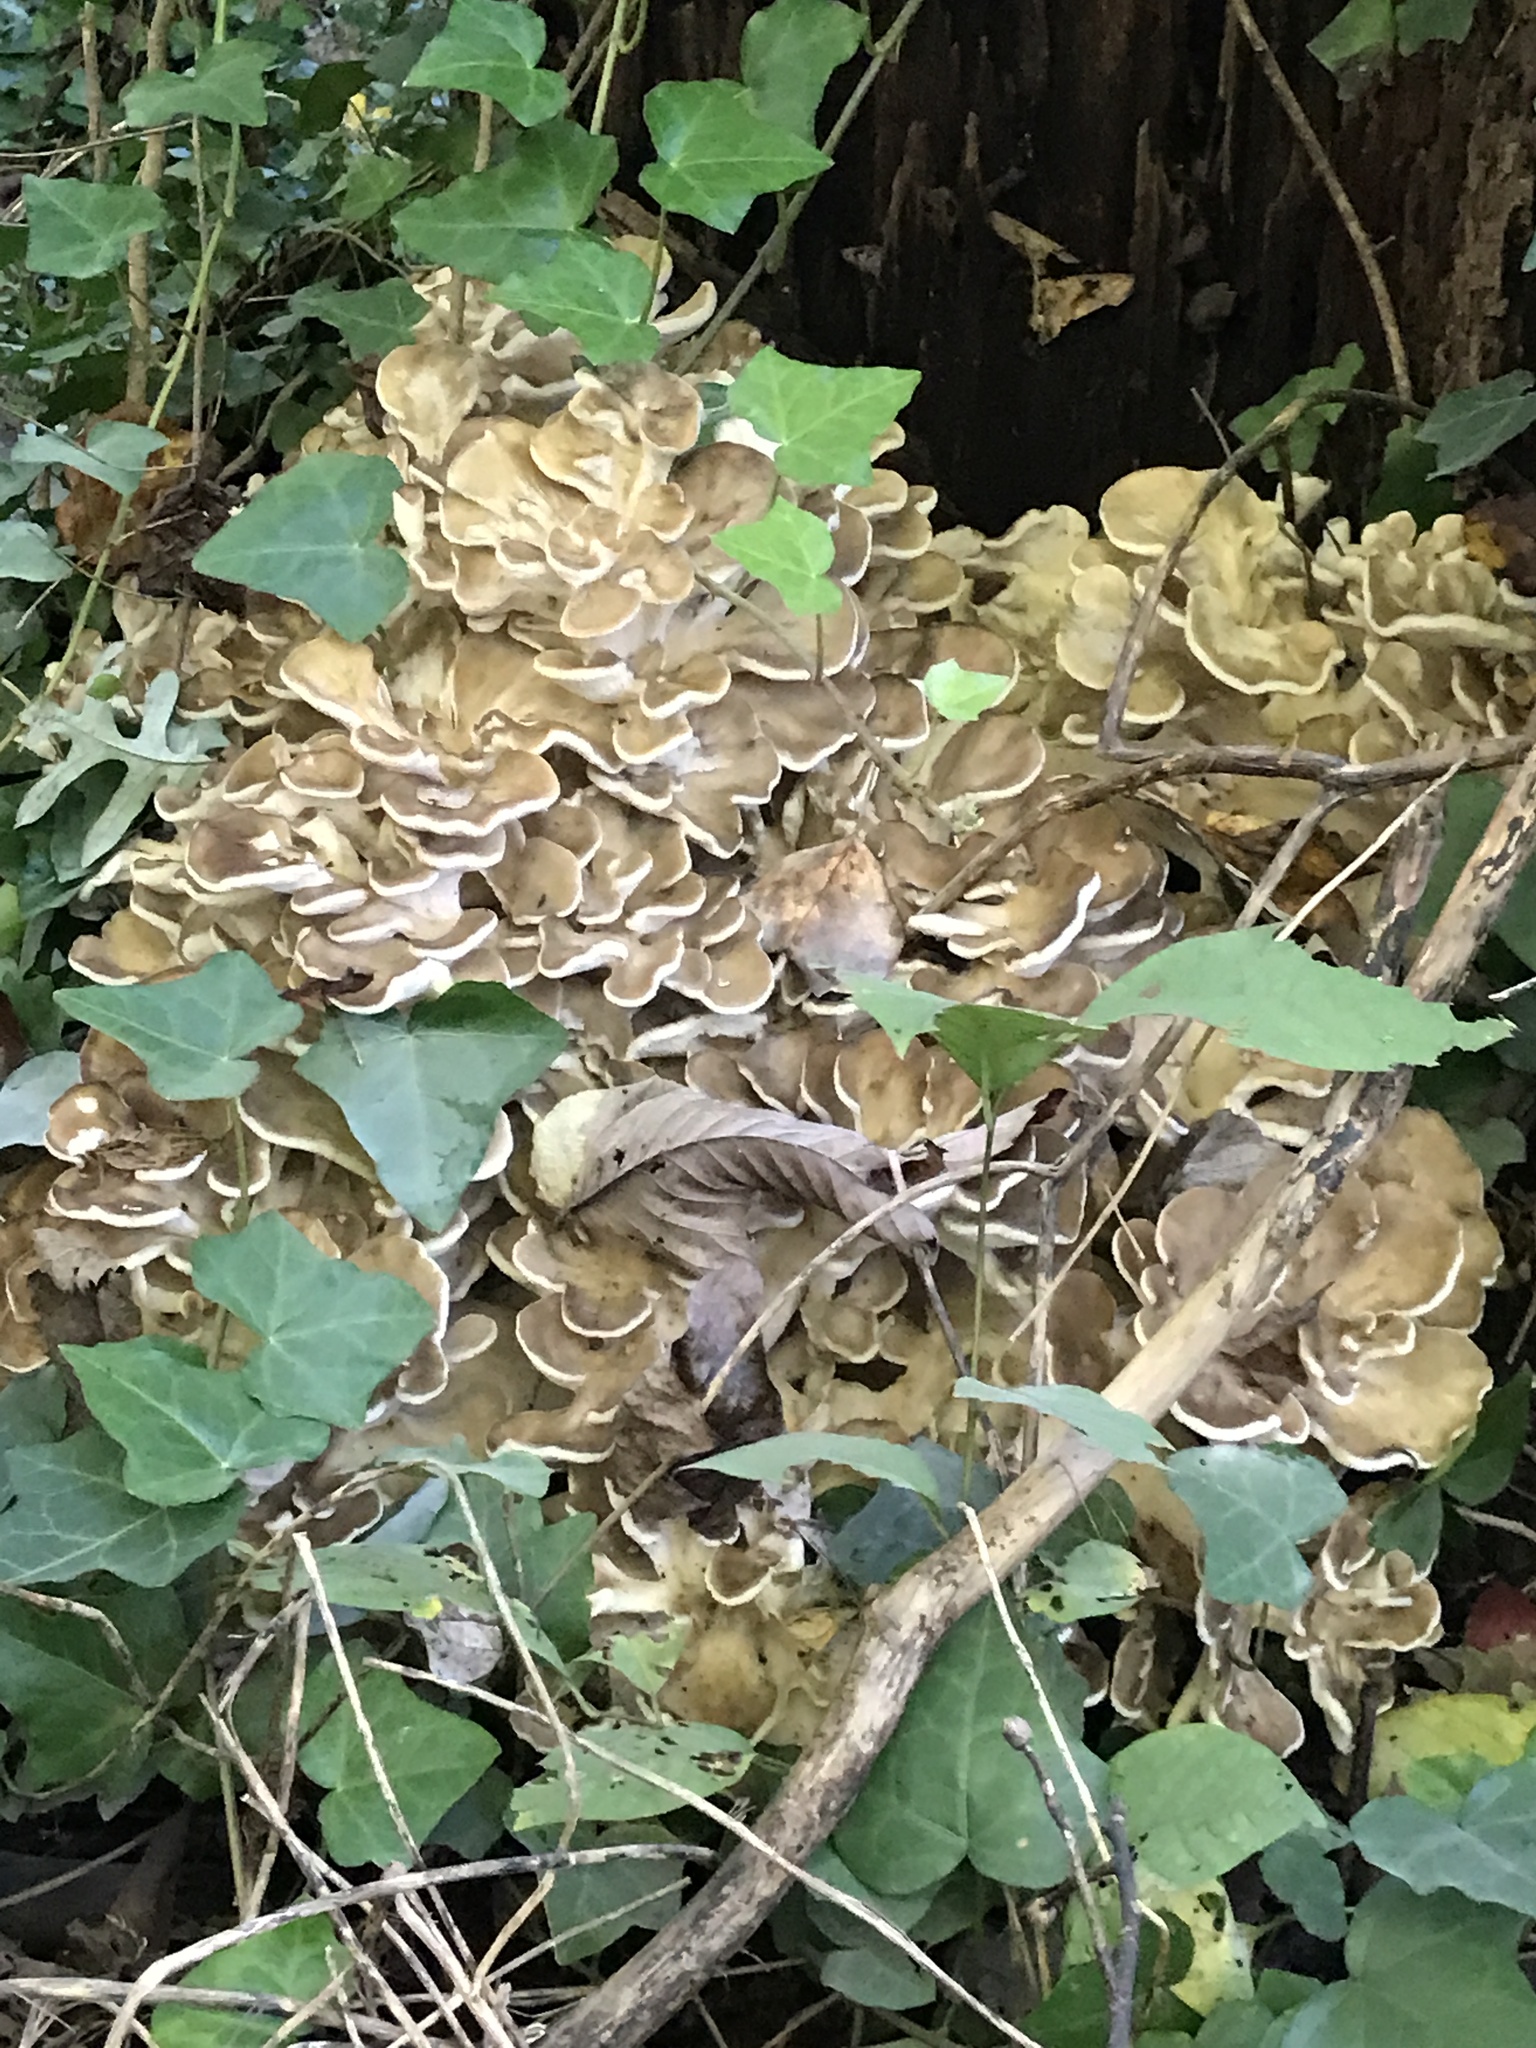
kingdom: Fungi
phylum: Basidiomycota
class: Agaricomycetes
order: Polyporales
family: Grifolaceae
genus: Grifola
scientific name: Grifola frondosa
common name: Hen of the woods
